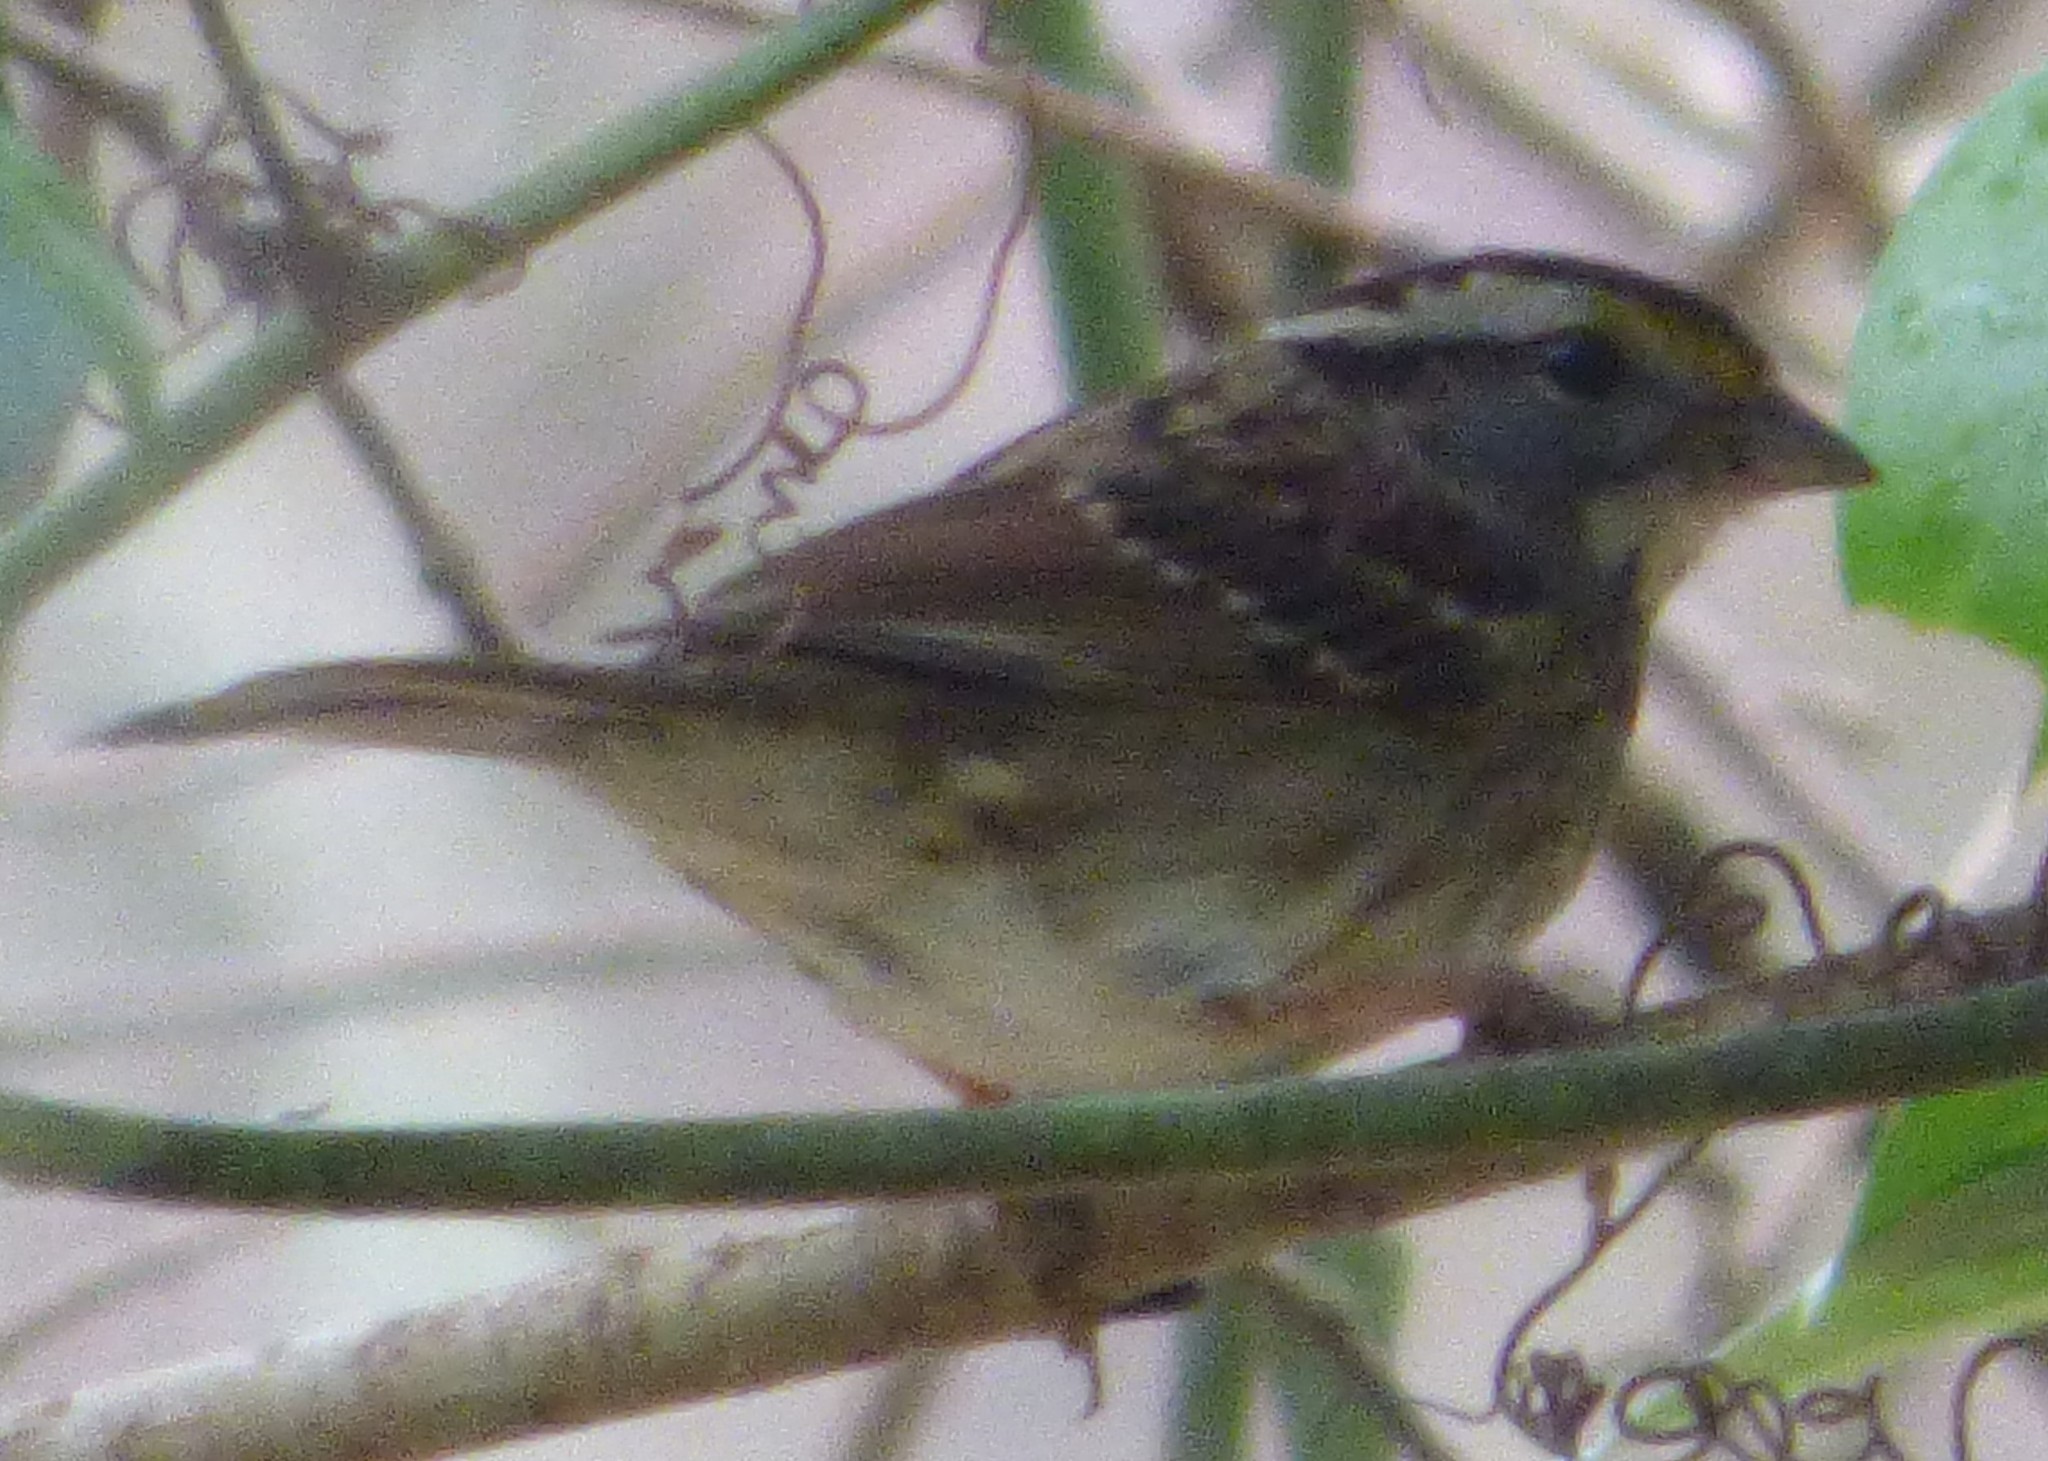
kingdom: Animalia
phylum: Chordata
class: Aves
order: Passeriformes
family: Passerellidae
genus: Zonotrichia
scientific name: Zonotrichia albicollis
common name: White-throated sparrow
